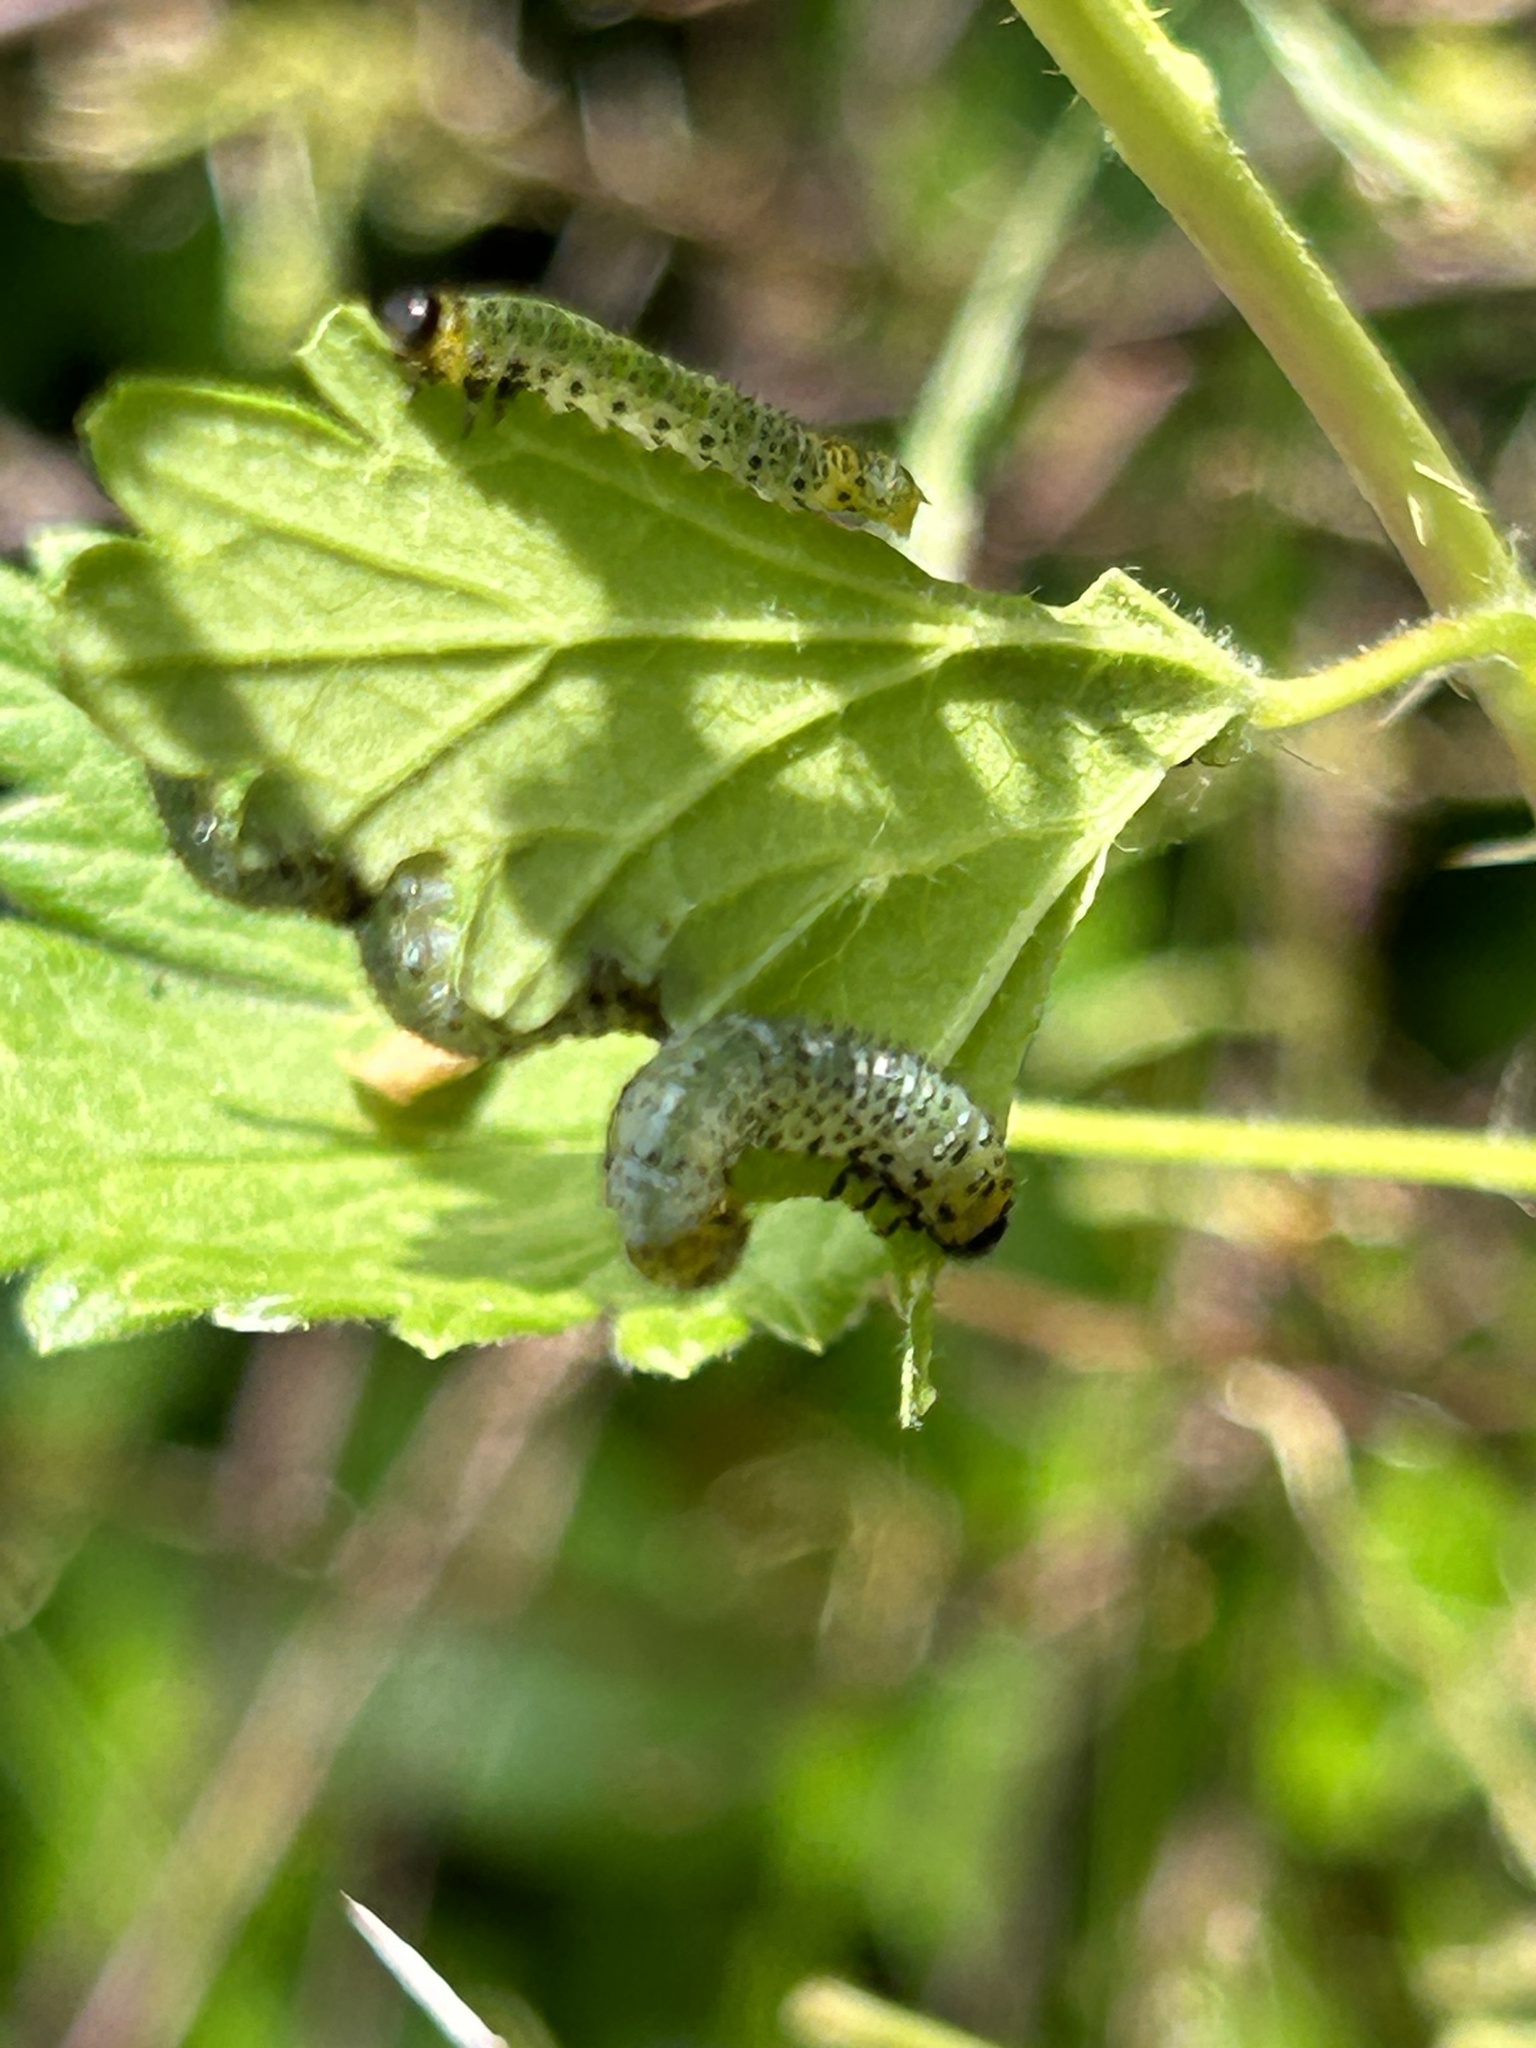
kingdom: Animalia
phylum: Arthropoda
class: Insecta
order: Hymenoptera
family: Tenthredinidae
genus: Nematus
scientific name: Nematus ribesii
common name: Imported currantworm
